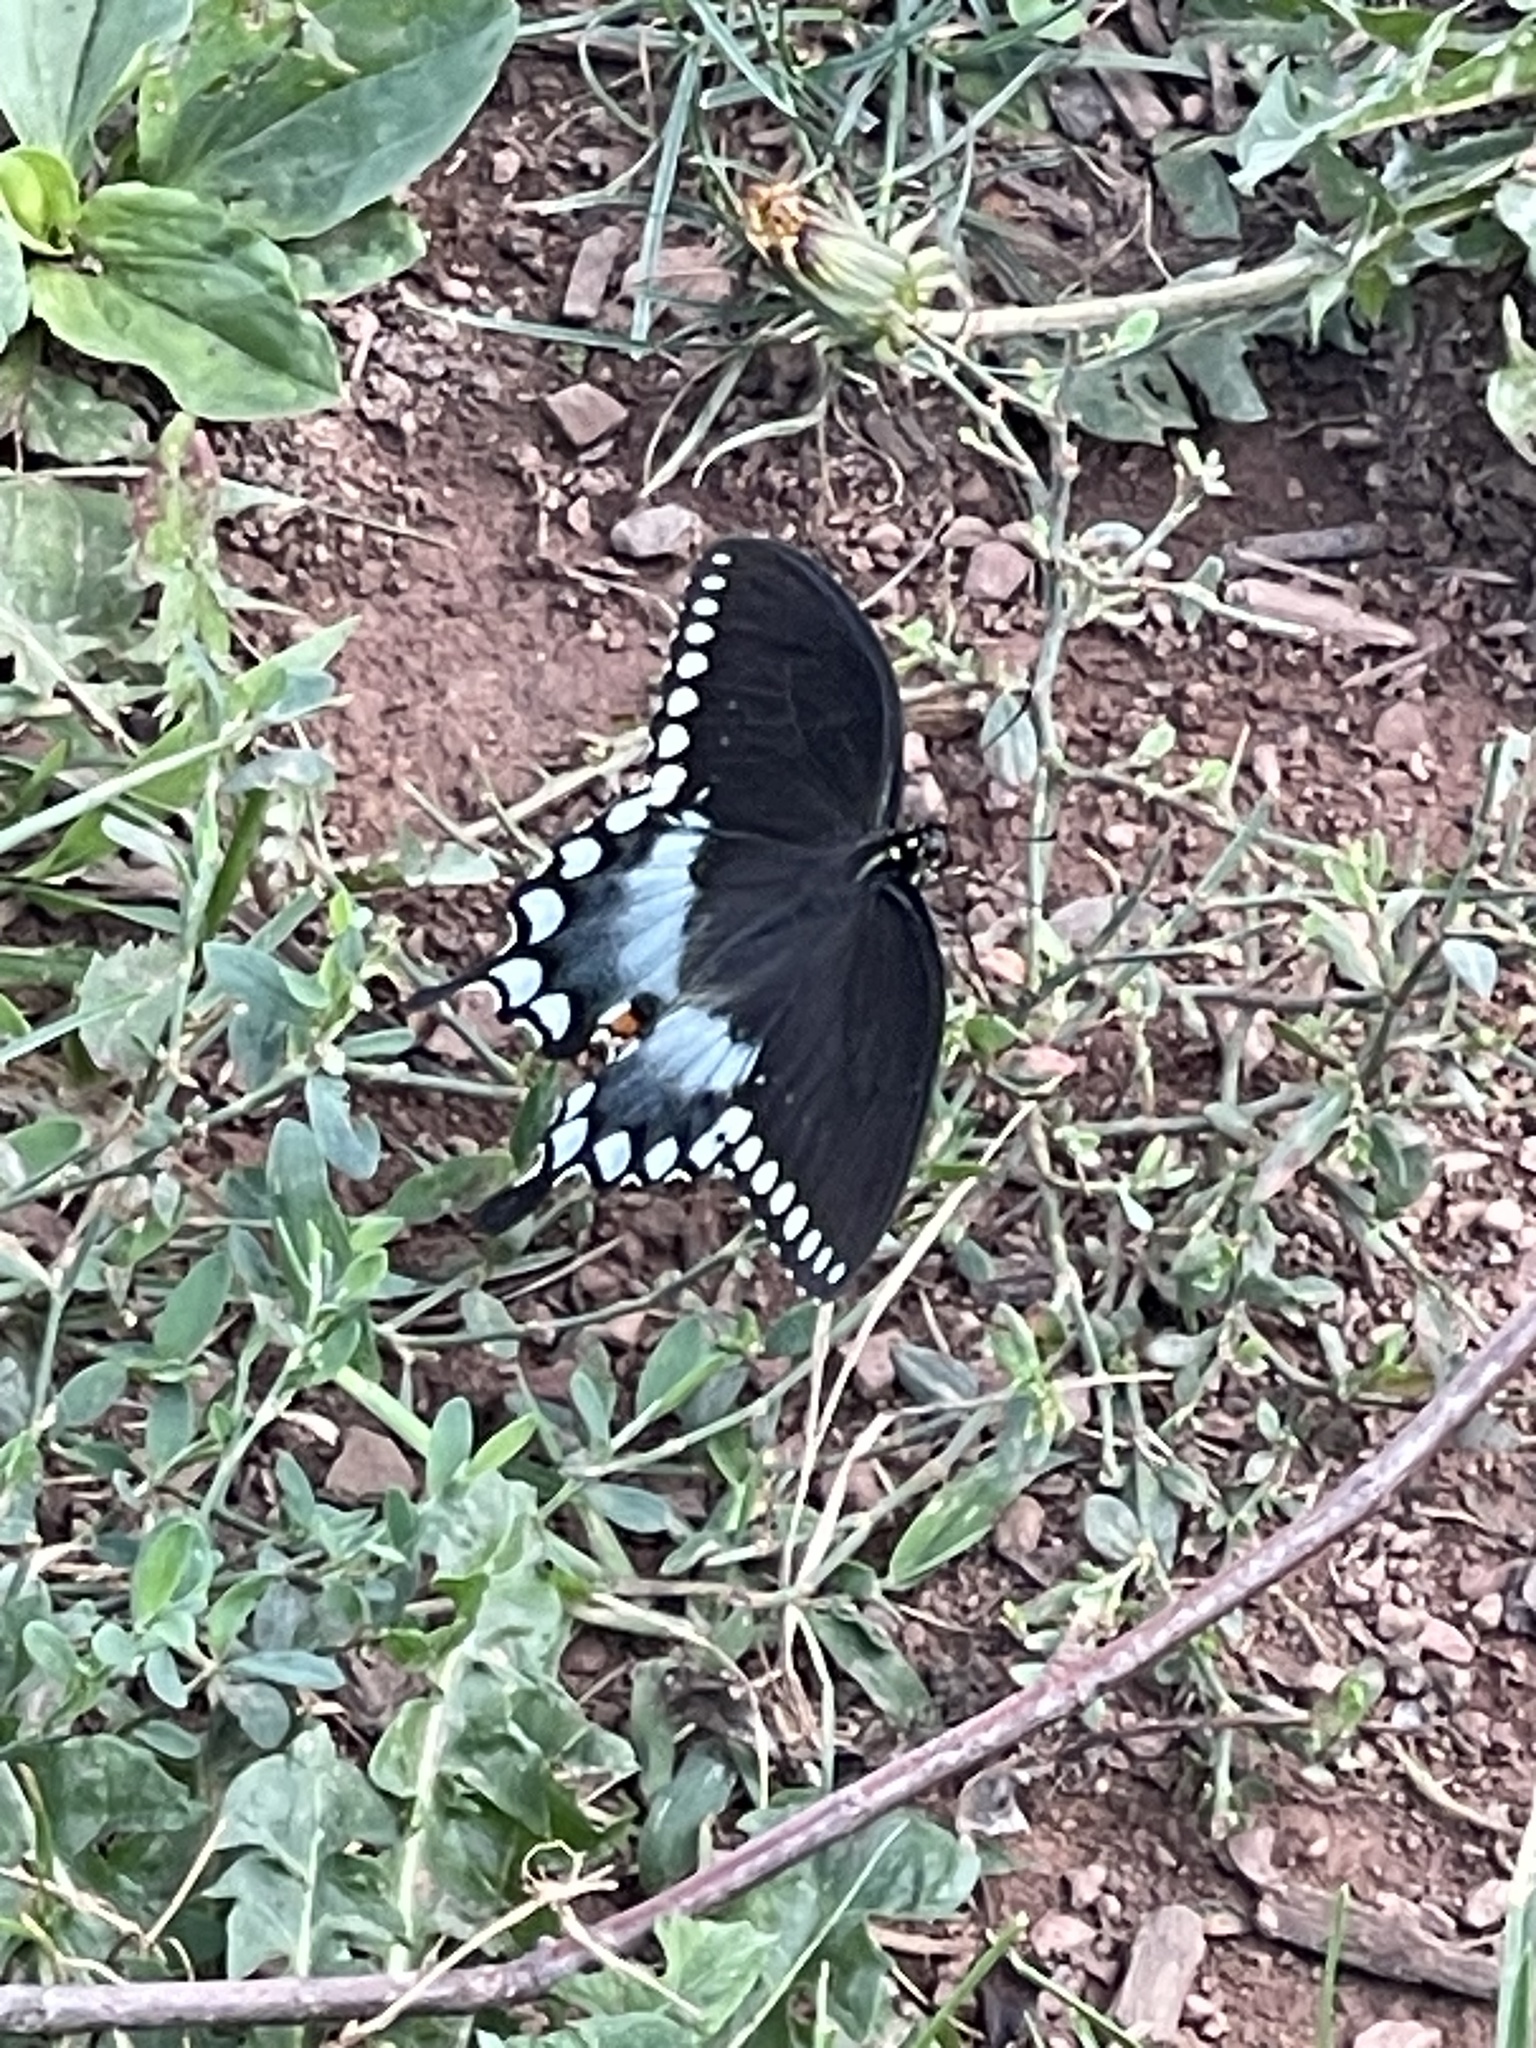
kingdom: Animalia
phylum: Arthropoda
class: Insecta
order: Lepidoptera
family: Papilionidae
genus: Papilio
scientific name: Papilio troilus
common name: Spicebush swallowtail
